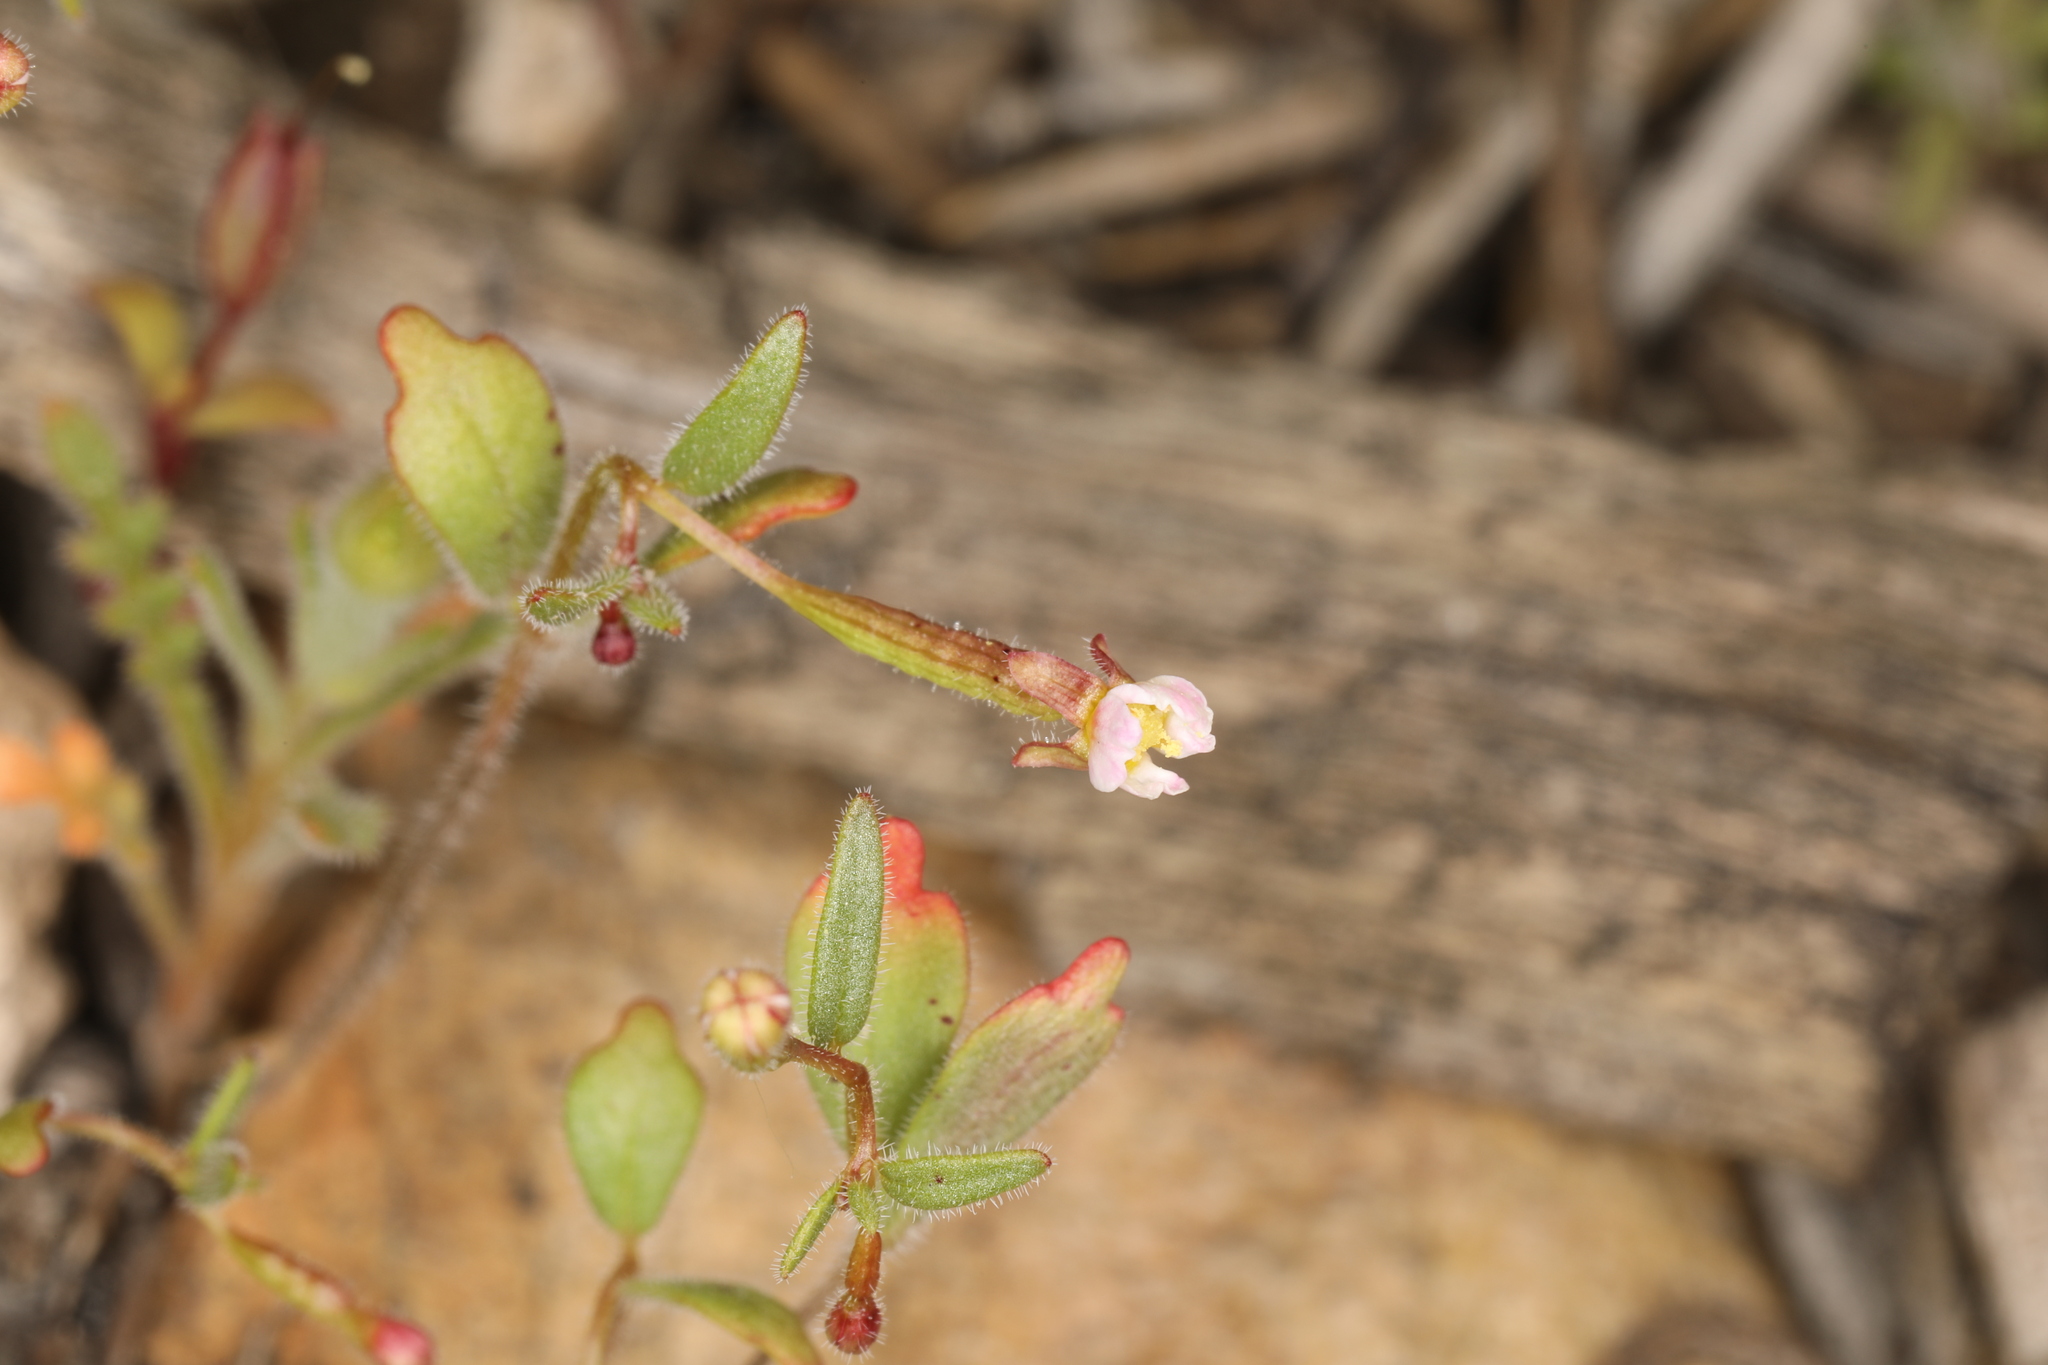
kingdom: Plantae
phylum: Tracheophyta
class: Magnoliopsida
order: Myrtales
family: Onagraceae
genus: Chylismiella
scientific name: Chylismiella pterosperma
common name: Wingfruit suncup
